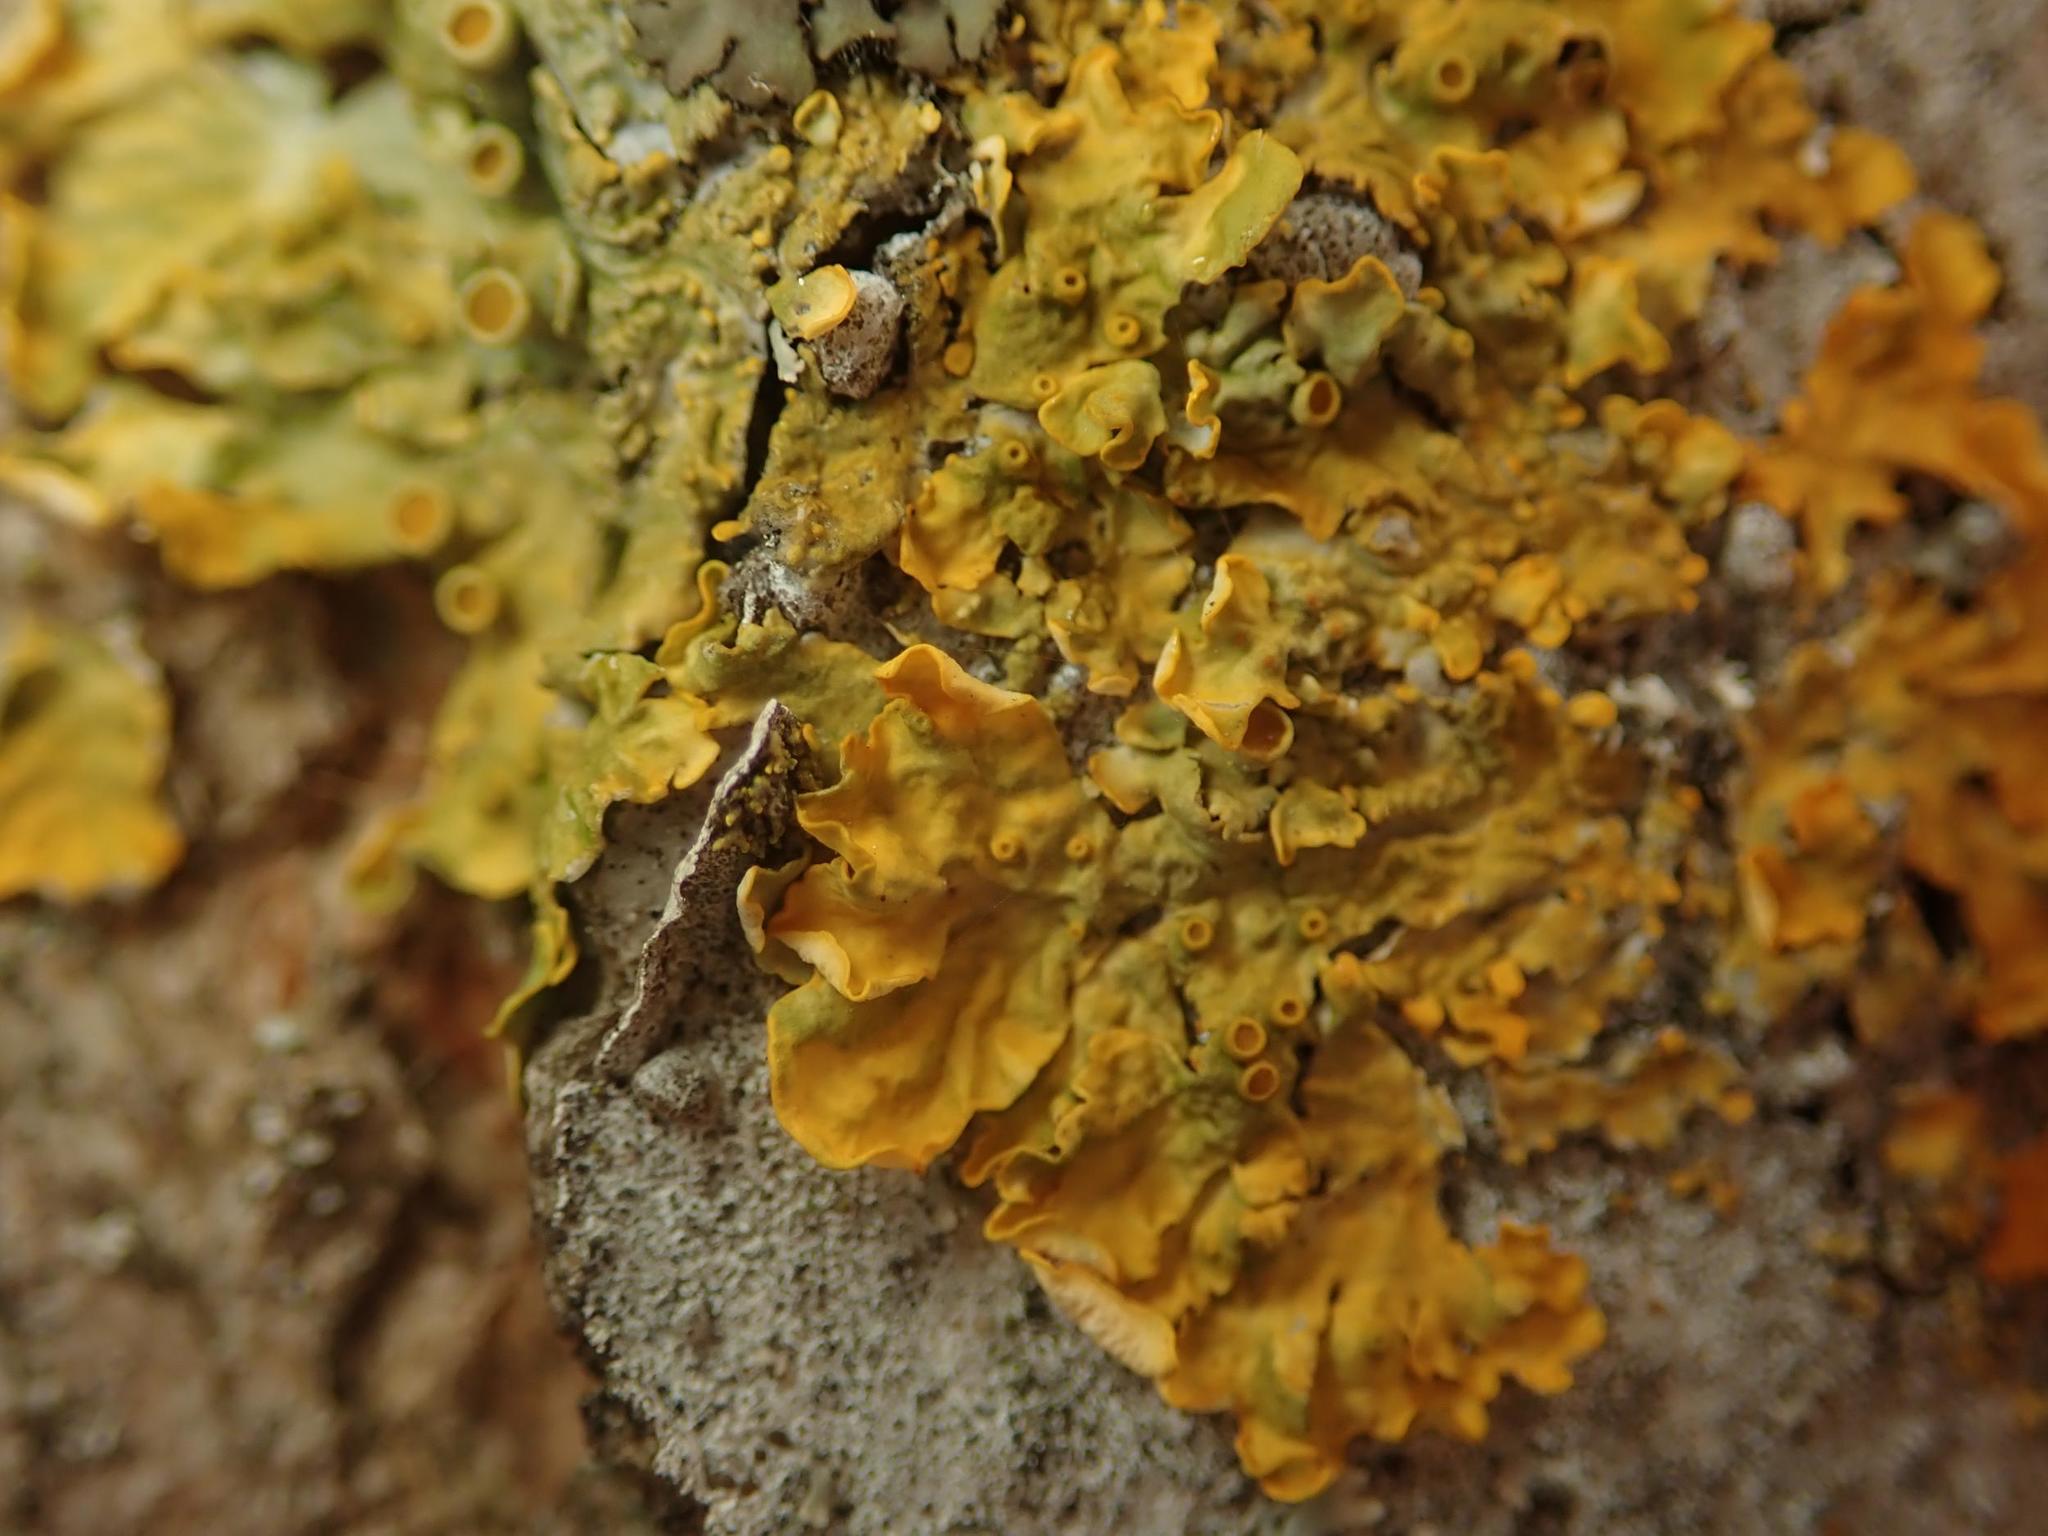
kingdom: Fungi
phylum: Ascomycota
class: Lecanoromycetes
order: Teloschistales
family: Teloschistaceae
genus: Xanthoria
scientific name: Xanthoria parietina
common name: Common orange lichen
